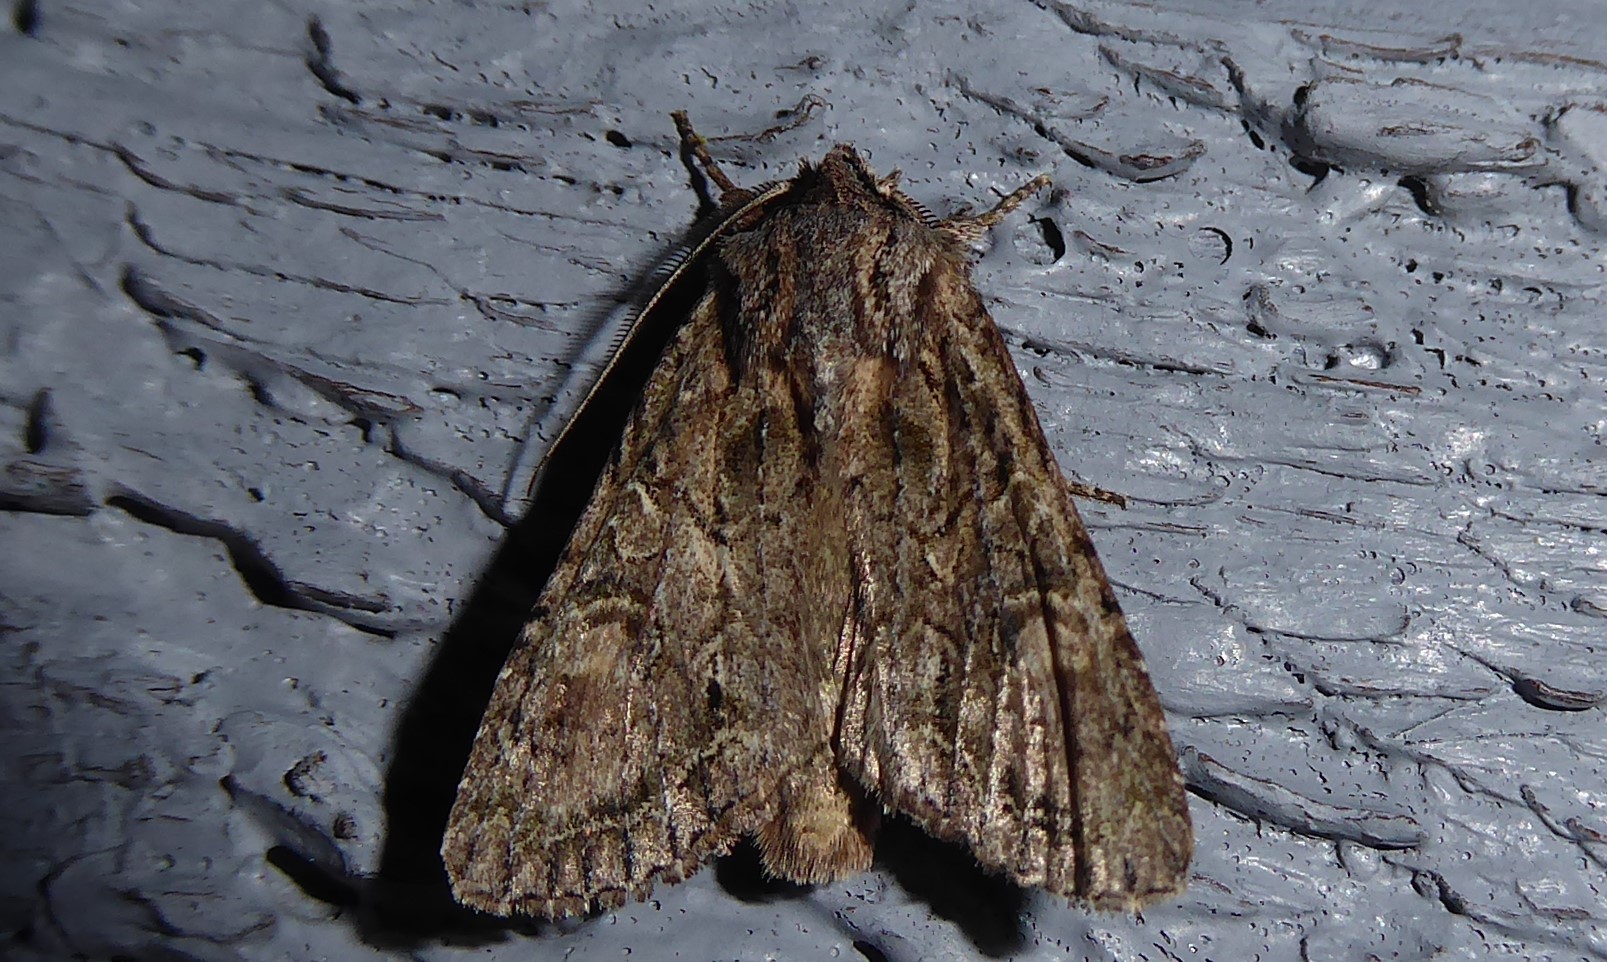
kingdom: Animalia
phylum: Arthropoda
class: Insecta
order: Lepidoptera
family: Noctuidae
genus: Ichneutica
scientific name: Ichneutica mutans
